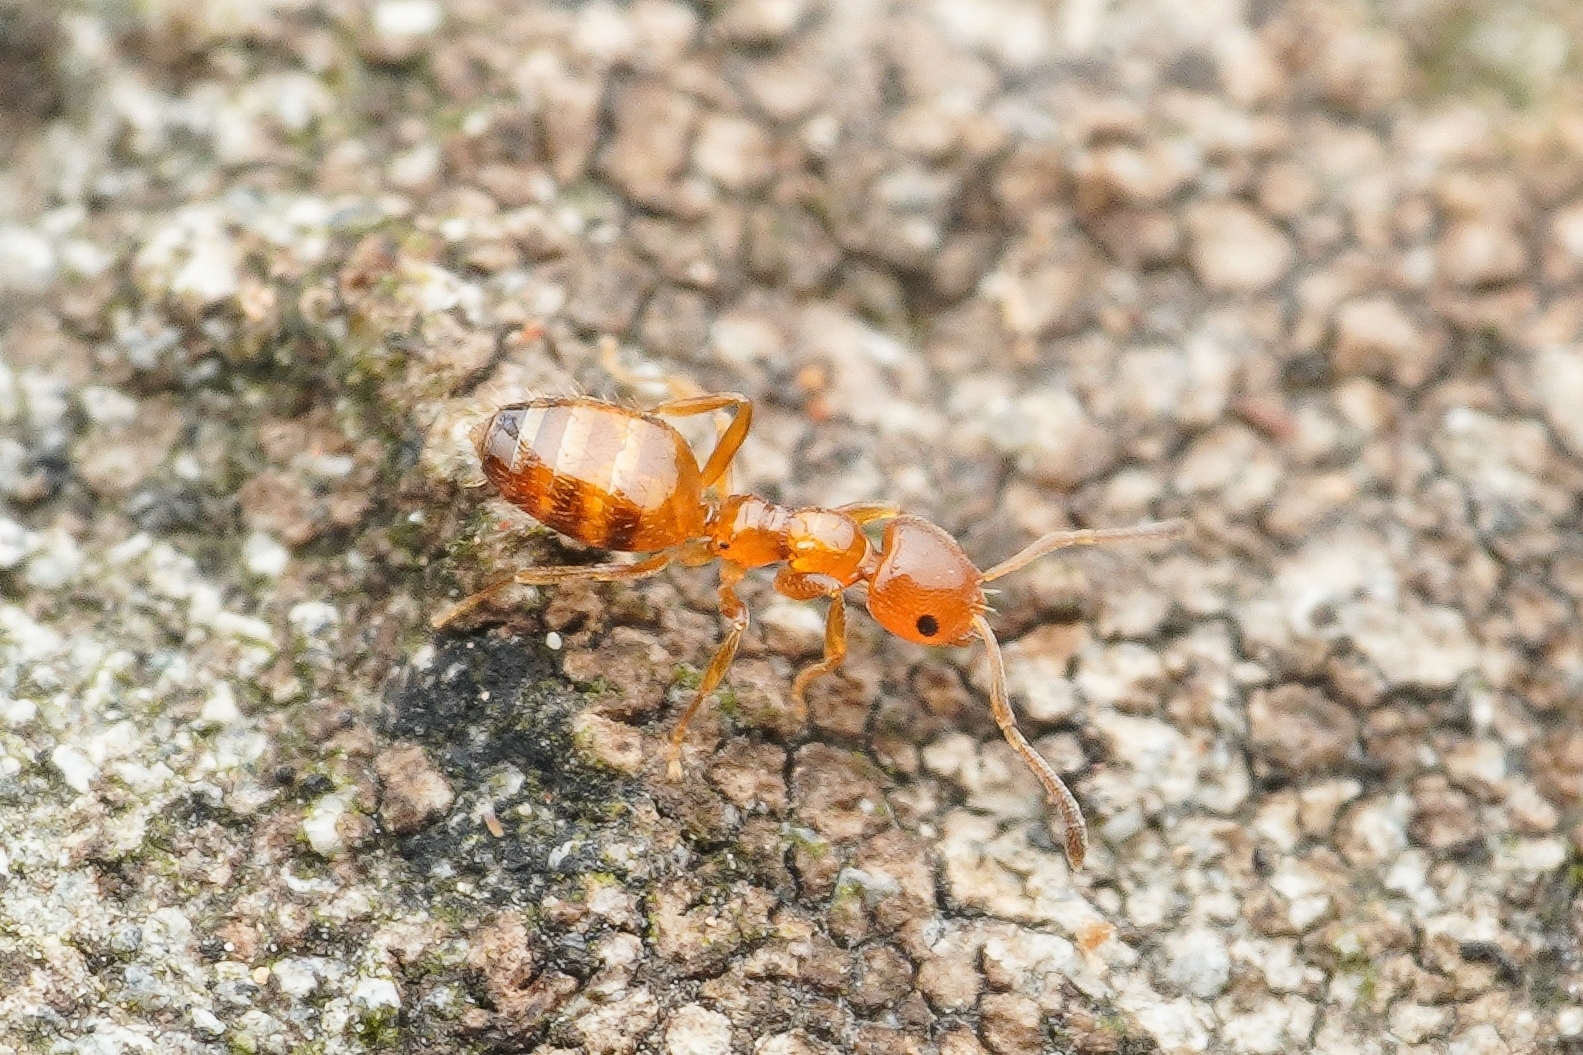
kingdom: Animalia
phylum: Arthropoda
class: Insecta
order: Hymenoptera
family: Formicidae
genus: Plagiolepis
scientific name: Plagiolepis flavescens
